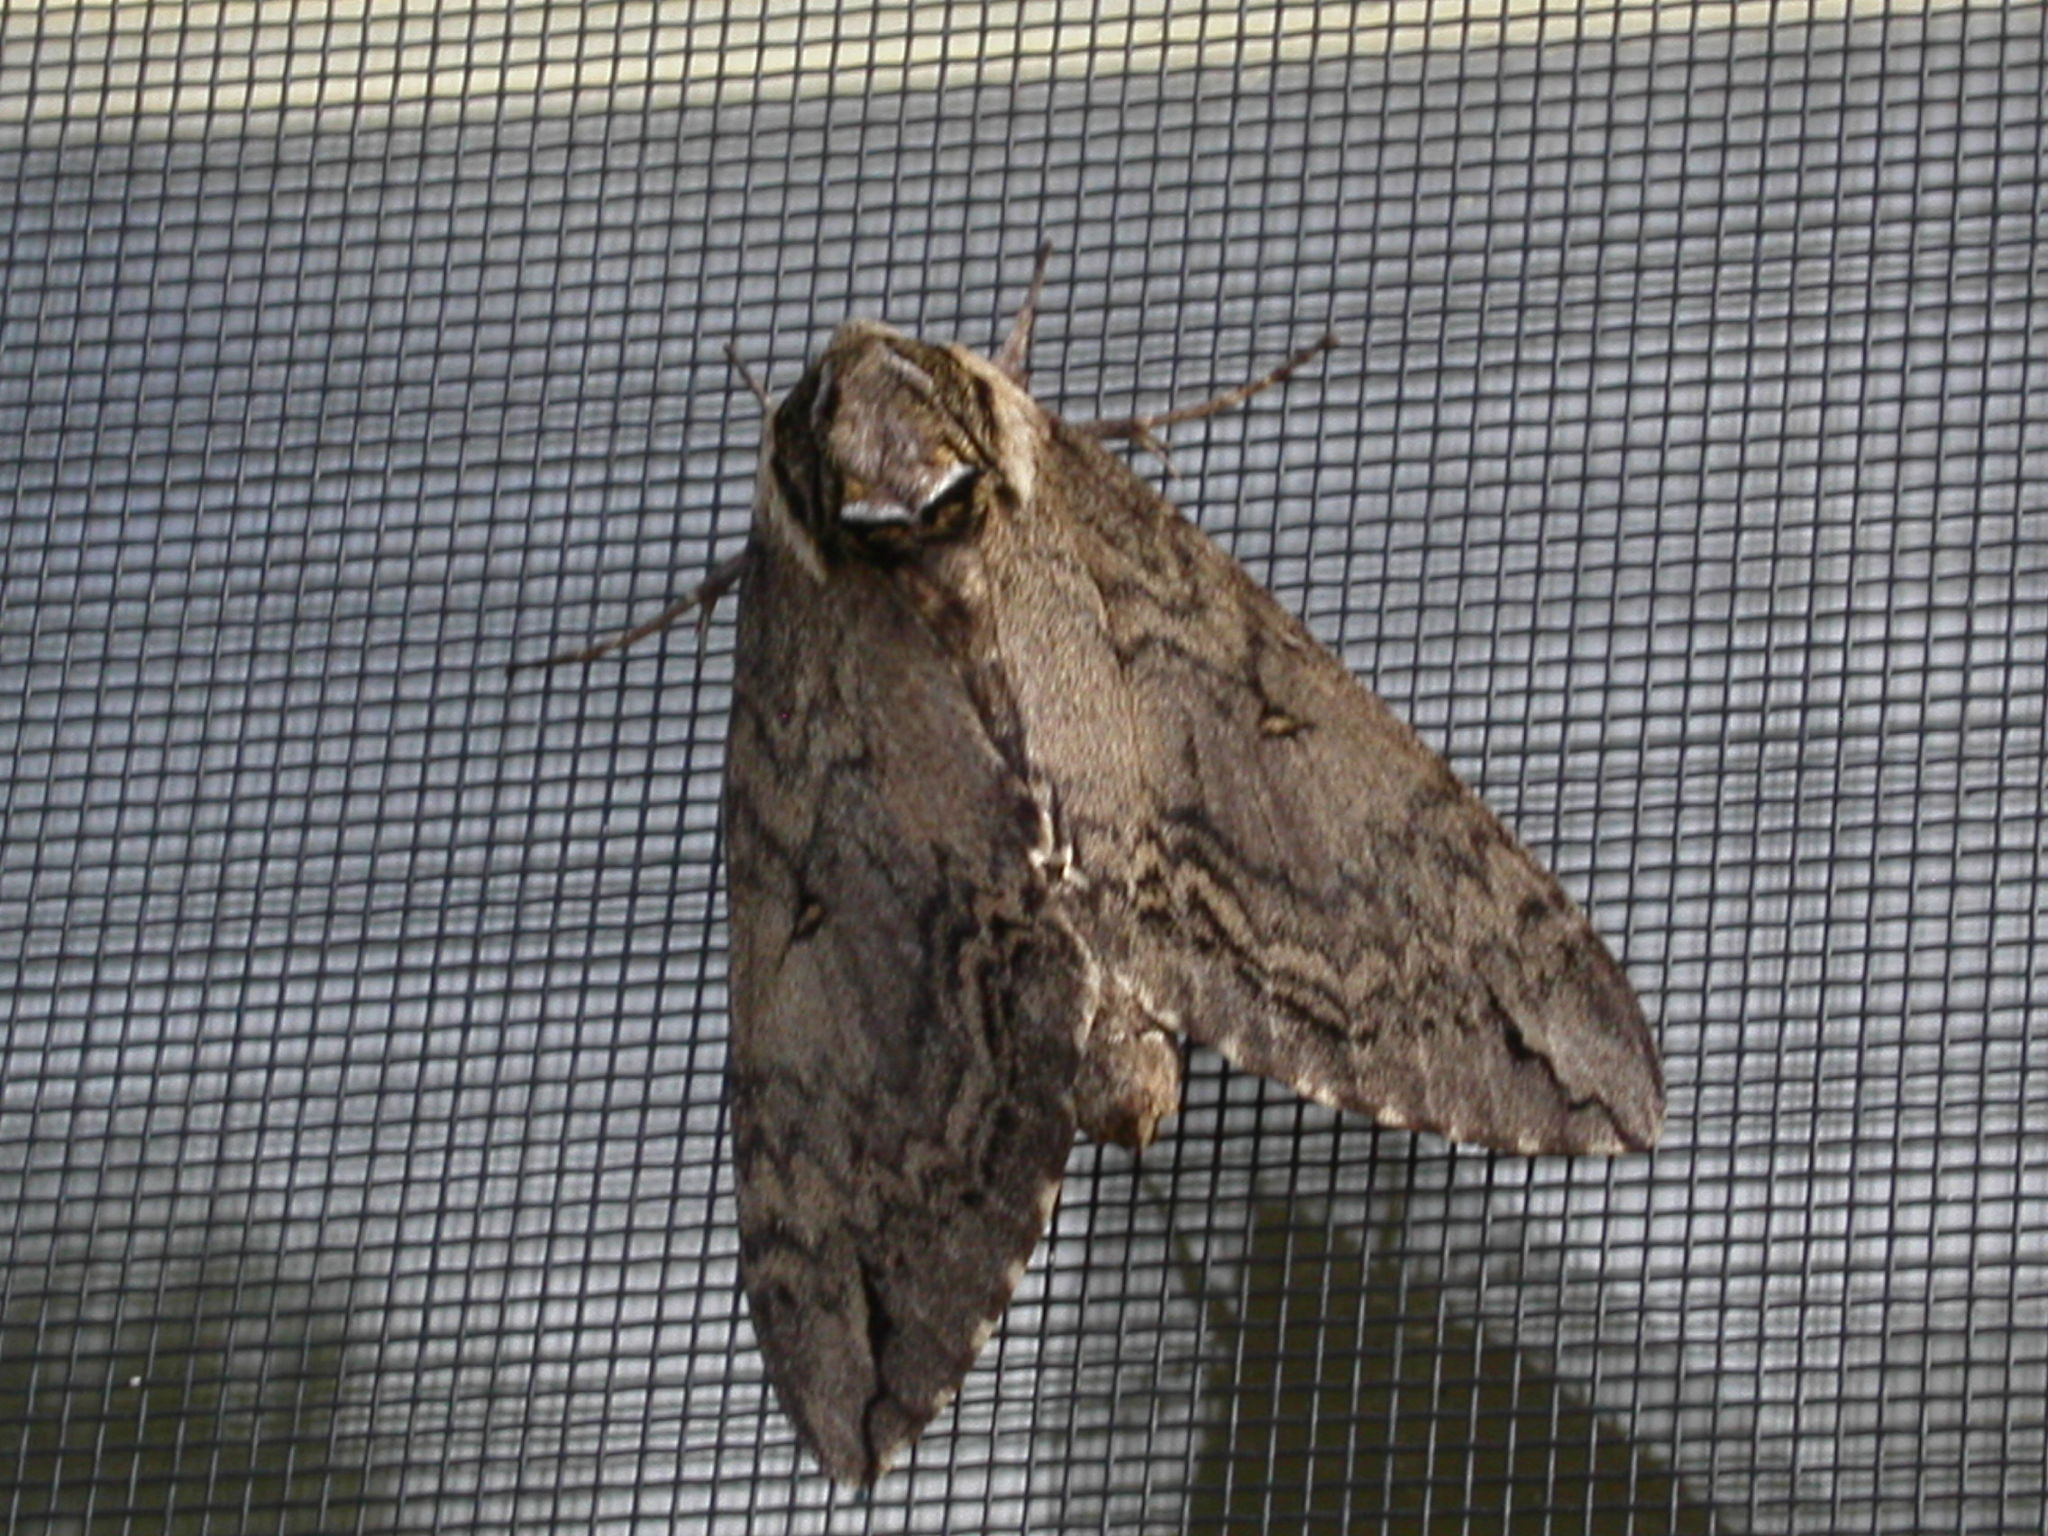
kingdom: Animalia
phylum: Arthropoda
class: Insecta
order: Lepidoptera
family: Sphingidae
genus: Ceratomia
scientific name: Ceratomia catalpae
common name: Catalpa hornworm
